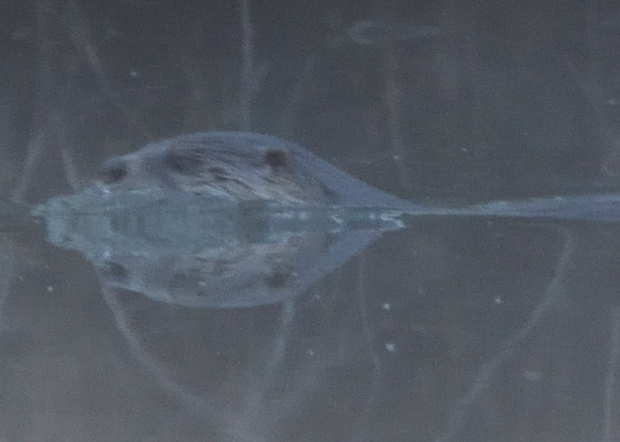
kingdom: Animalia
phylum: Chordata
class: Mammalia
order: Carnivora
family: Mustelidae
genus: Lontra
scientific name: Lontra canadensis
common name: North american river otter
